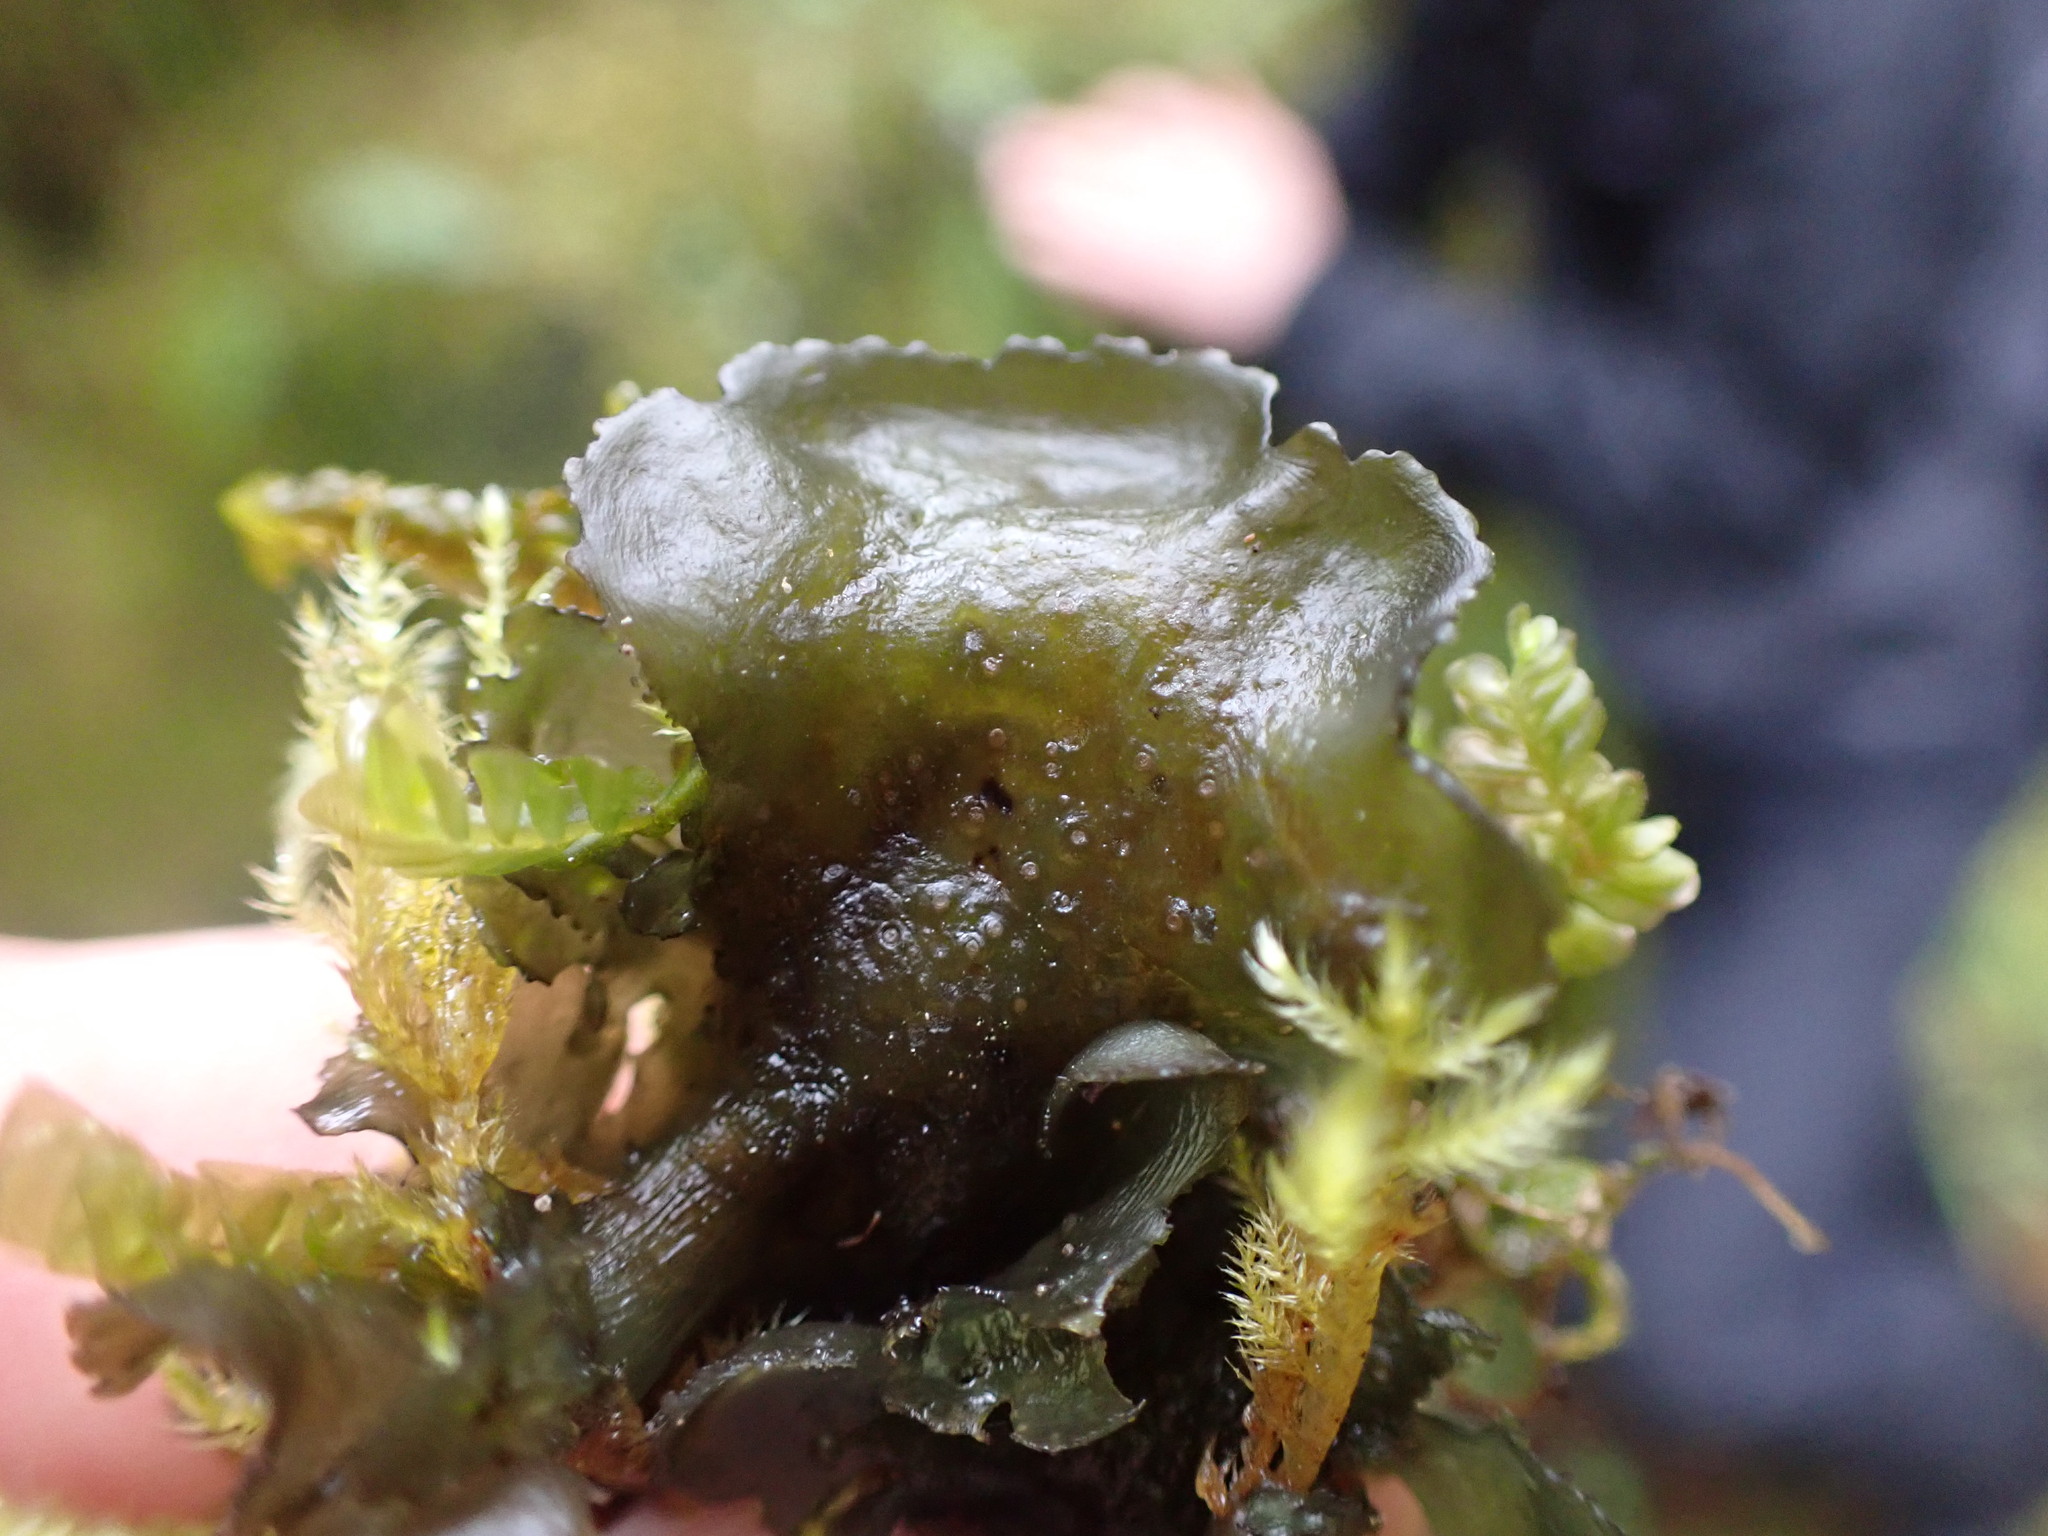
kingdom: Fungi
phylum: Ascomycota
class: Lecanoromycetes
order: Peltigerales
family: Collemataceae
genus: Scytinium
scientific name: Scytinium platynum
